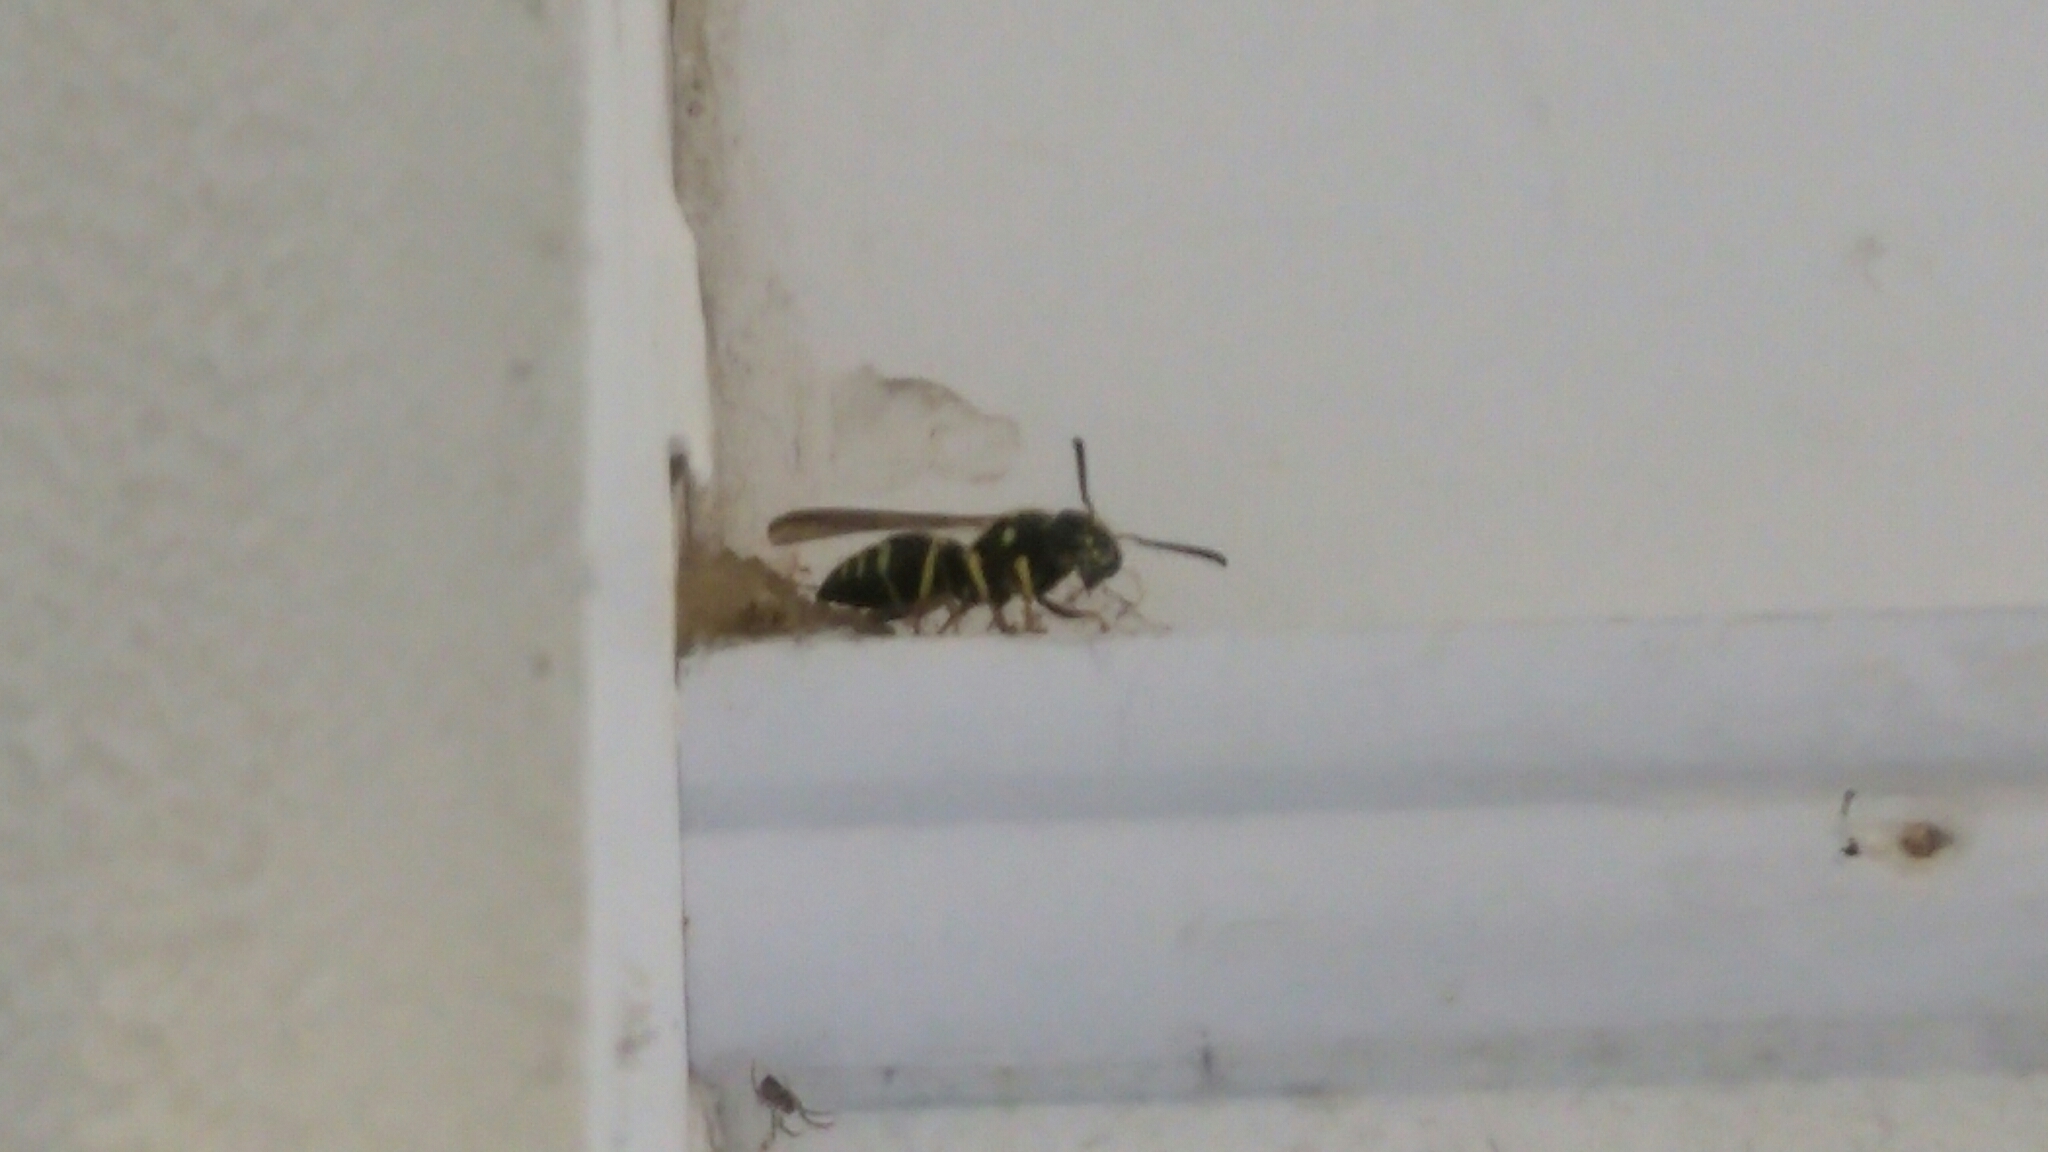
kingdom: Animalia
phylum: Arthropoda
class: Insecta
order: Hymenoptera
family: Vespidae
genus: Ancistrocerus
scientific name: Ancistrocerus
